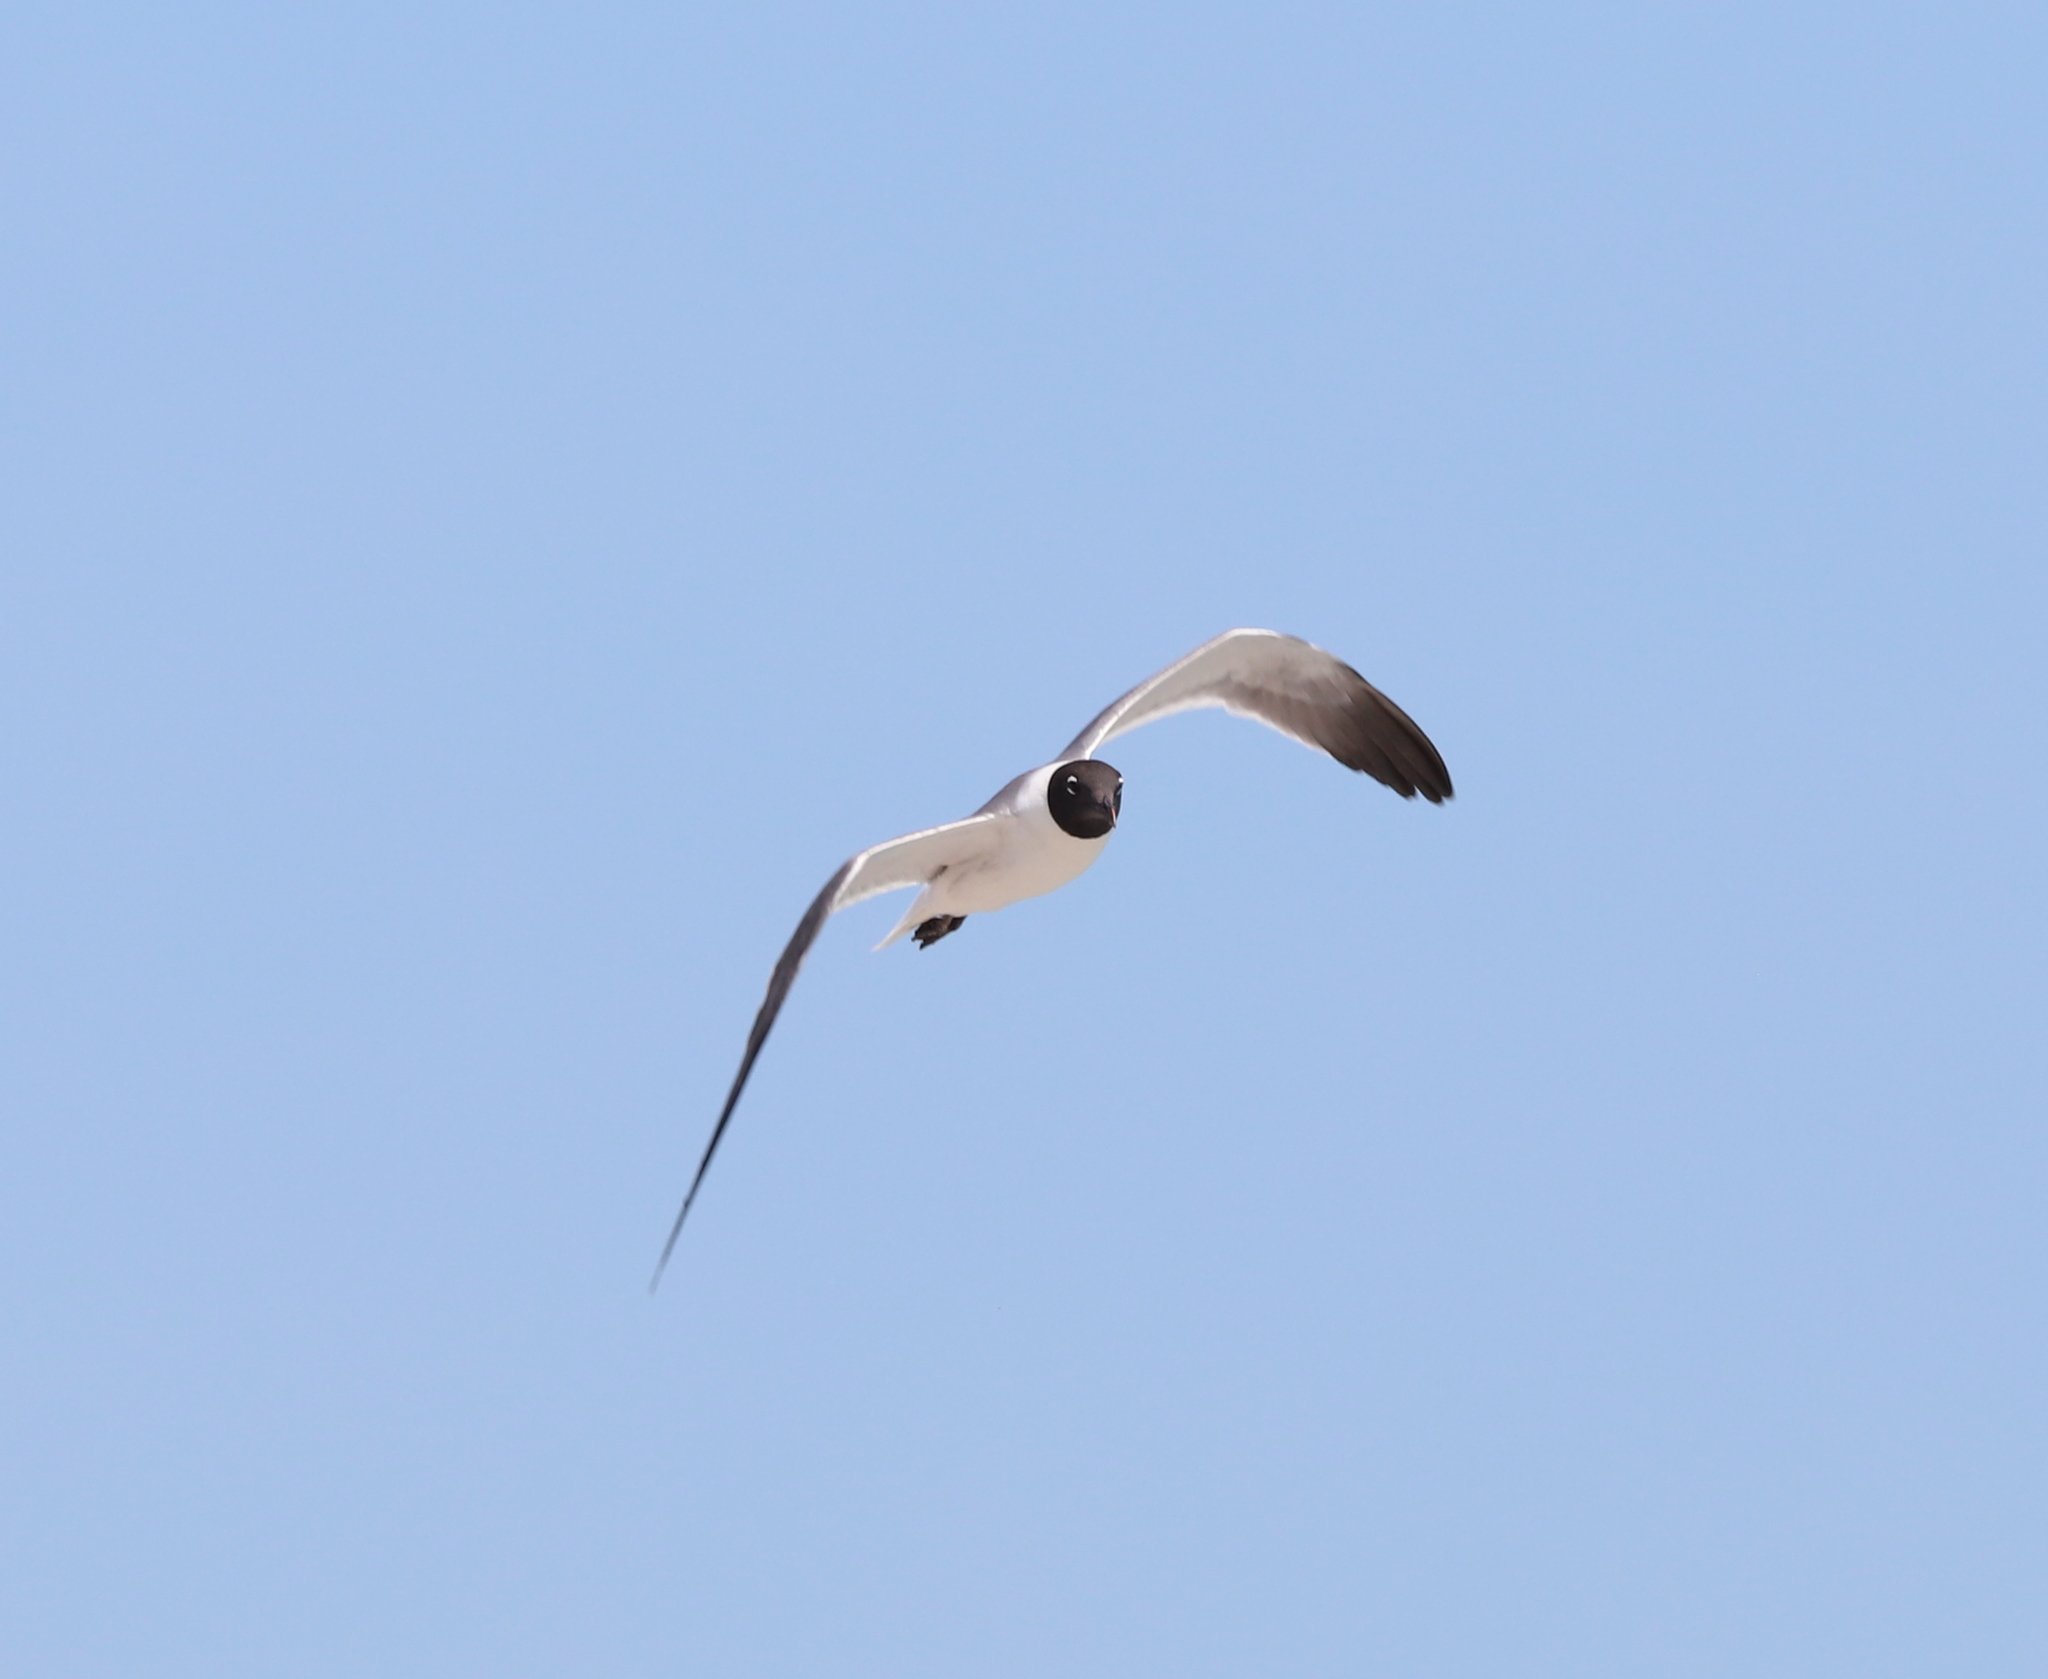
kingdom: Animalia
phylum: Chordata
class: Aves
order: Charadriiformes
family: Laridae
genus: Leucophaeus
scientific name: Leucophaeus atricilla
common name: Laughing gull
